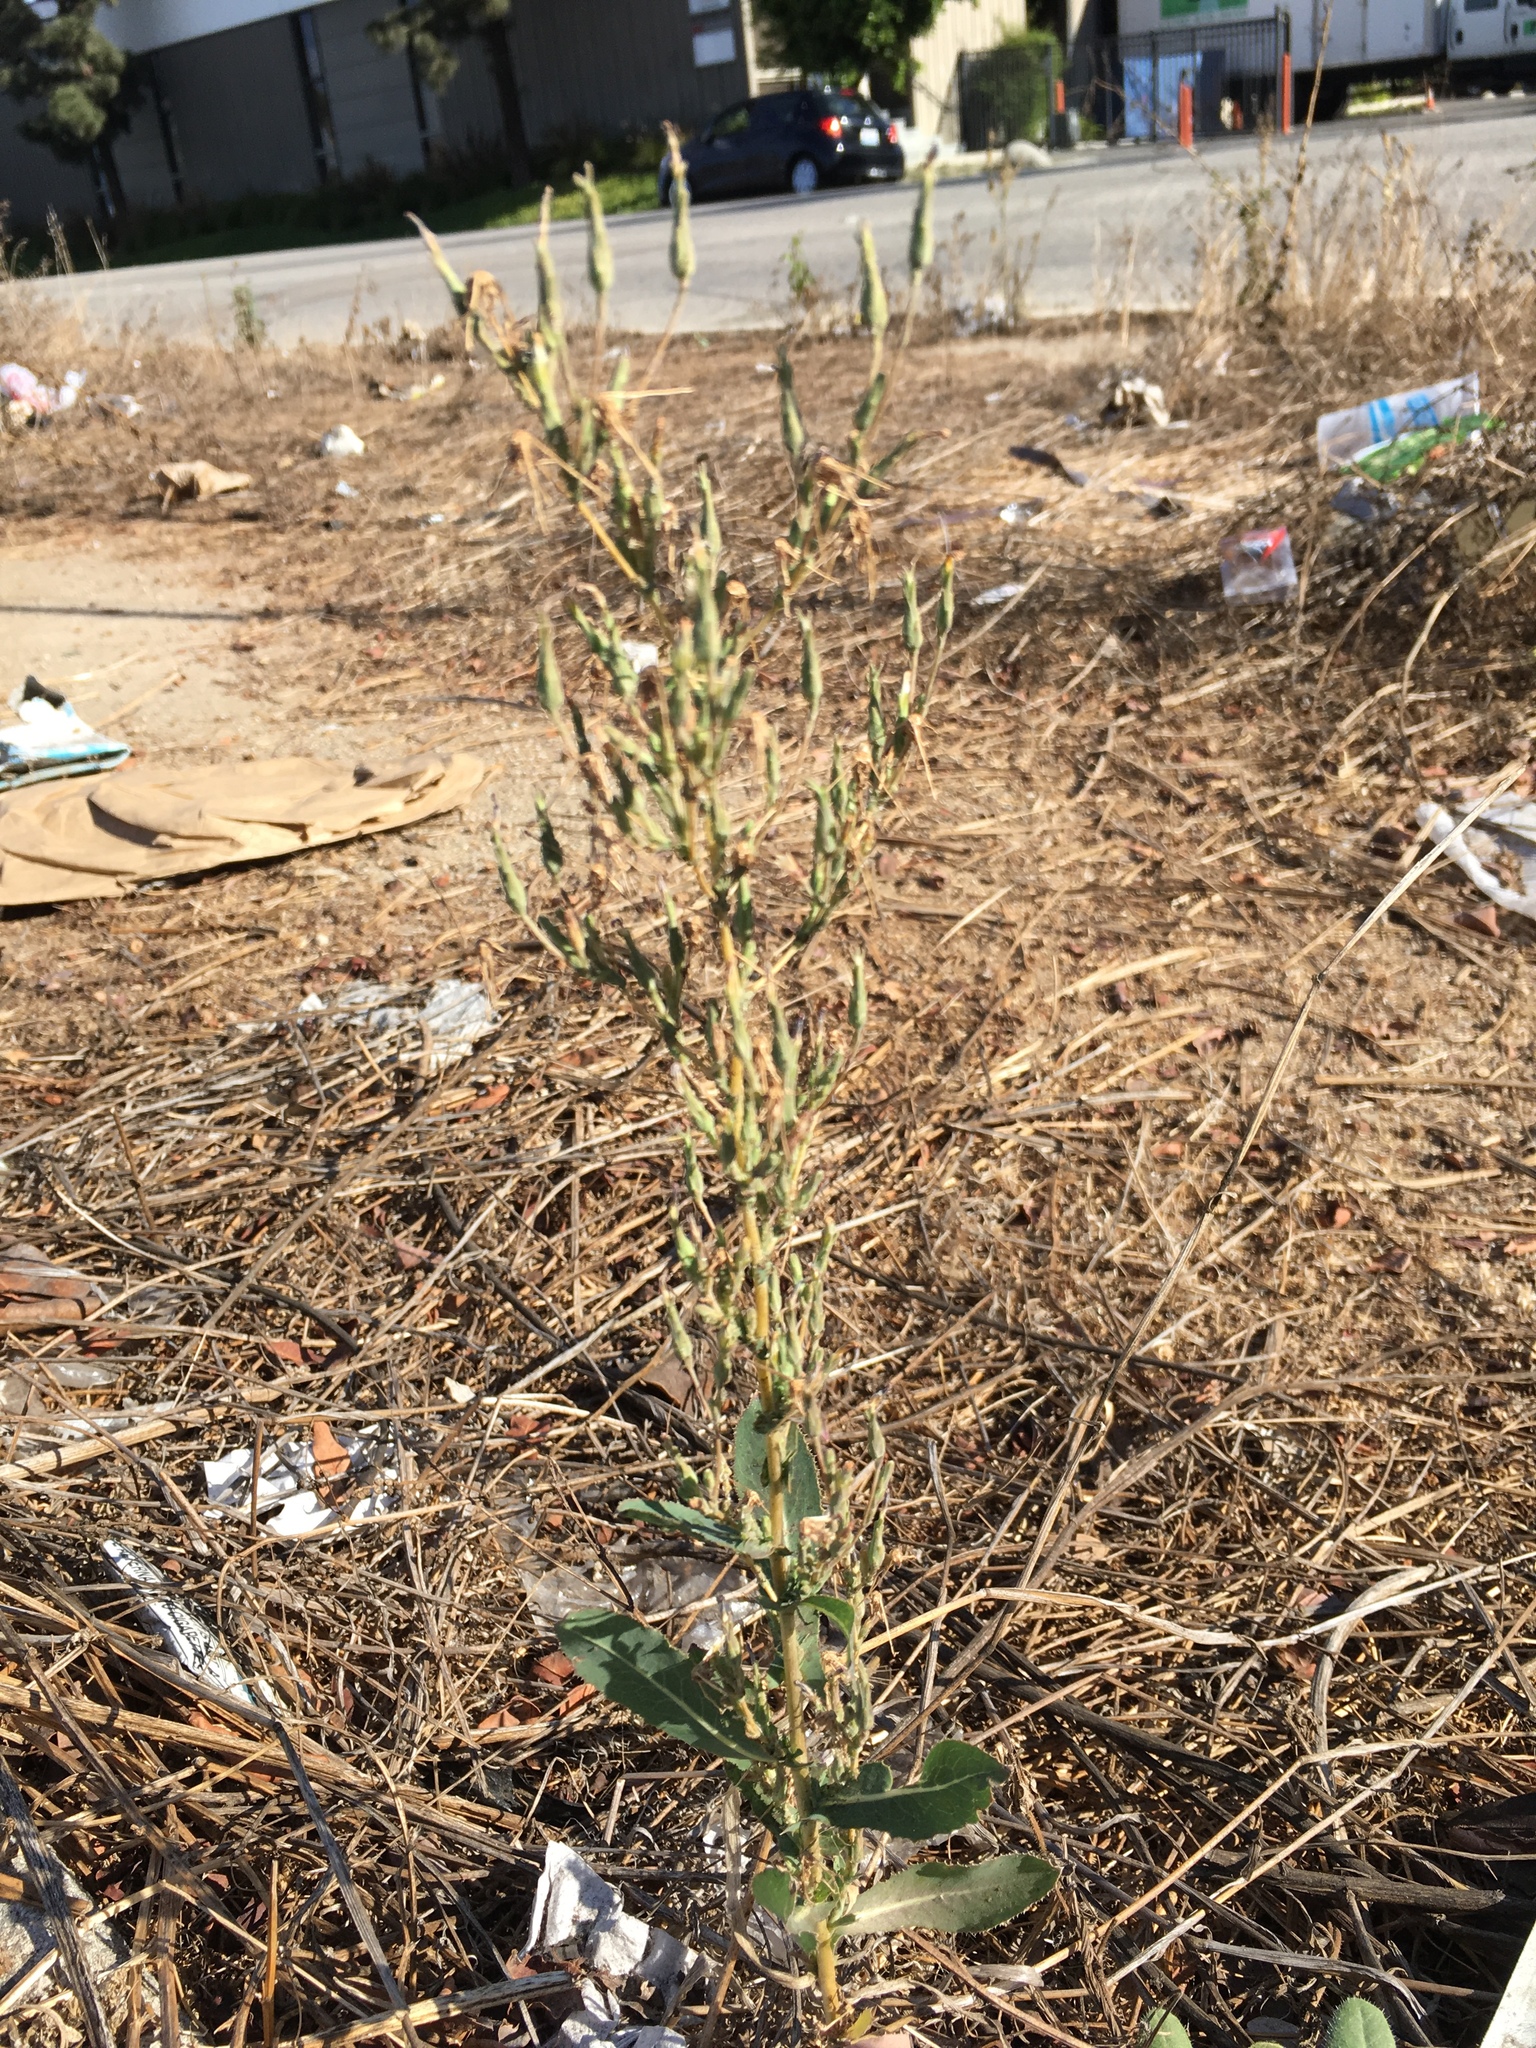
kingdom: Plantae
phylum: Tracheophyta
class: Magnoliopsida
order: Asterales
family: Asteraceae
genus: Lactuca
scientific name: Lactuca serriola
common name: Prickly lettuce
